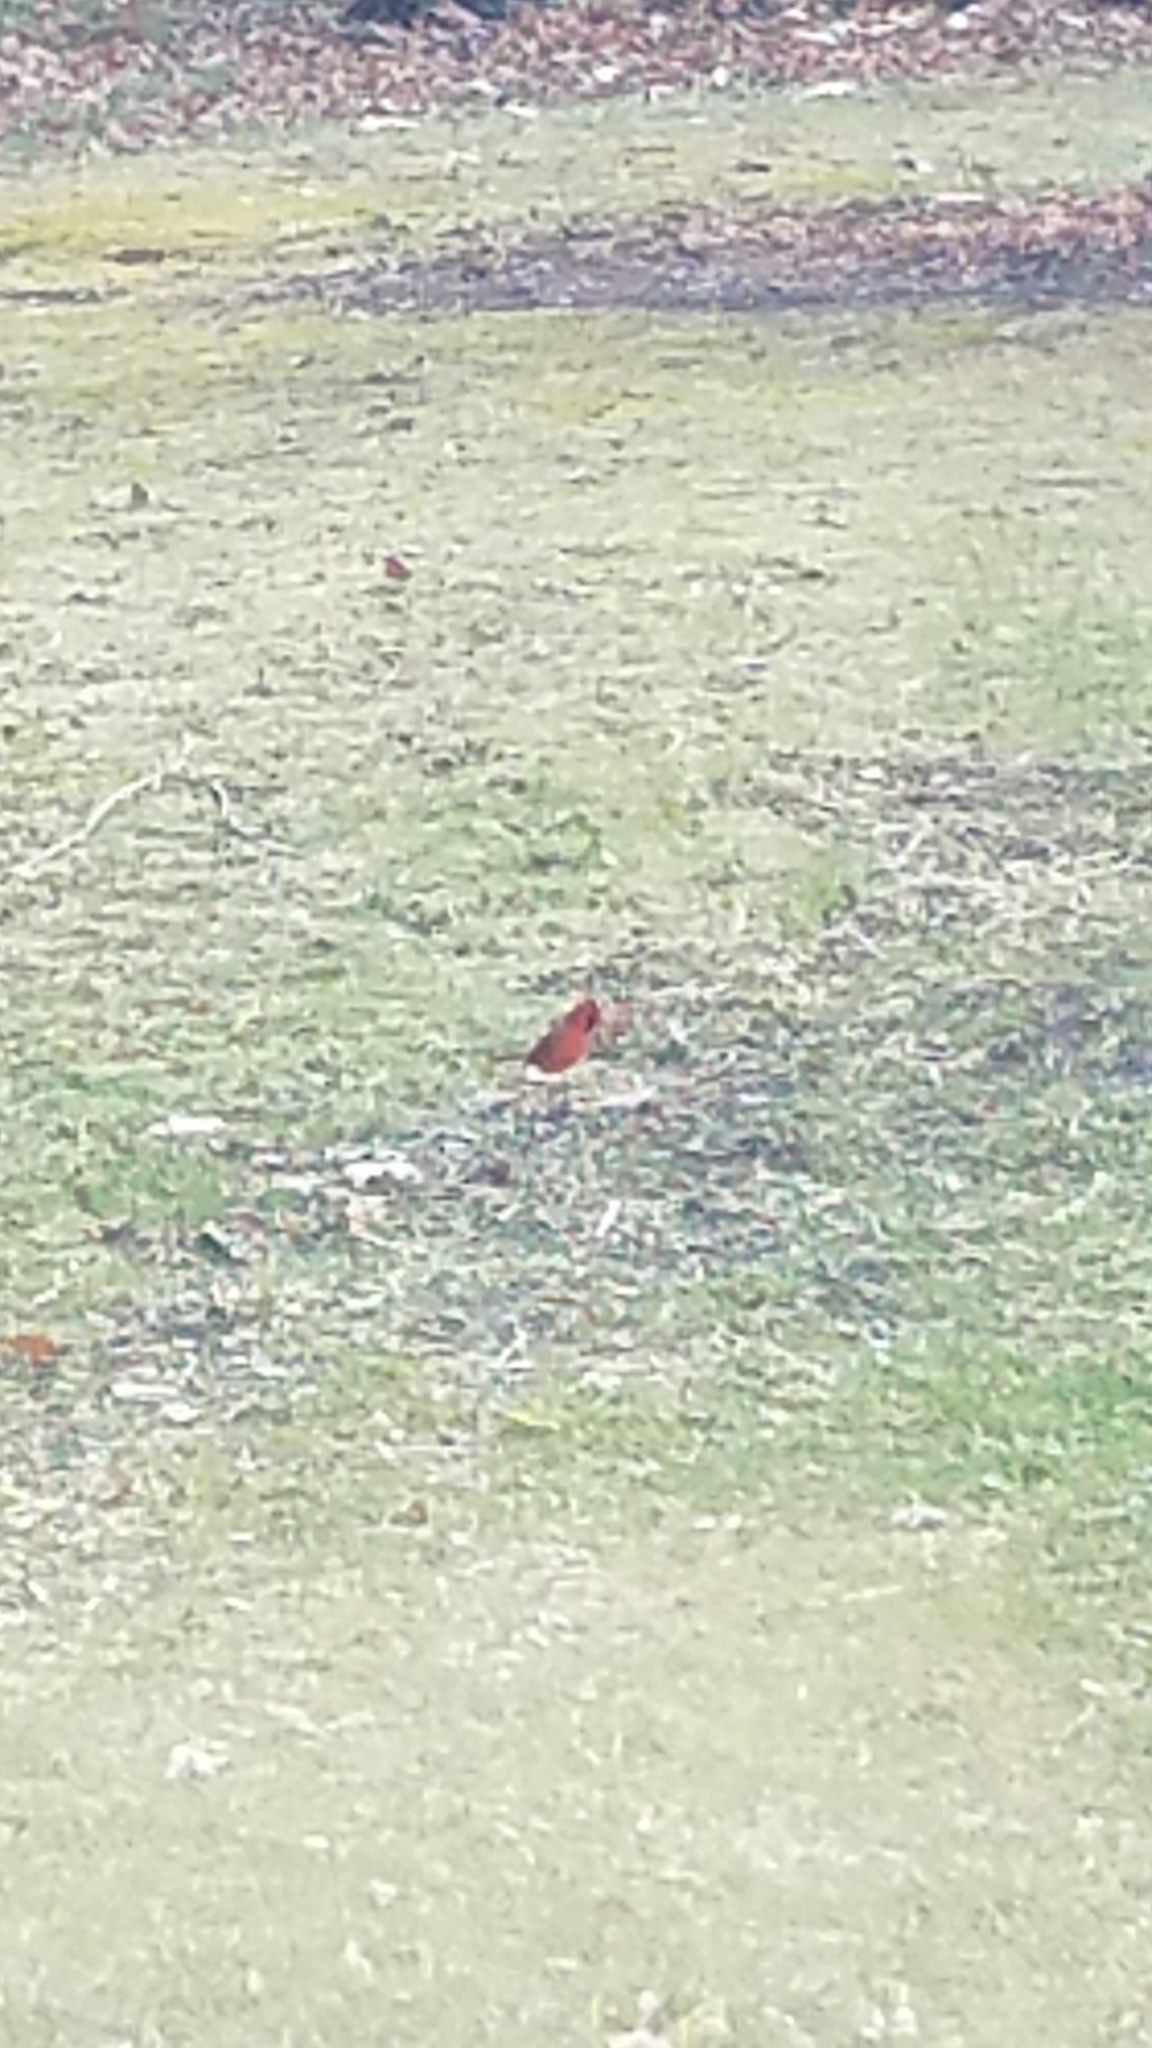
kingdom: Animalia
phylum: Chordata
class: Aves
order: Passeriformes
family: Cardinalidae
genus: Cardinalis
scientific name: Cardinalis cardinalis
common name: Northern cardinal
